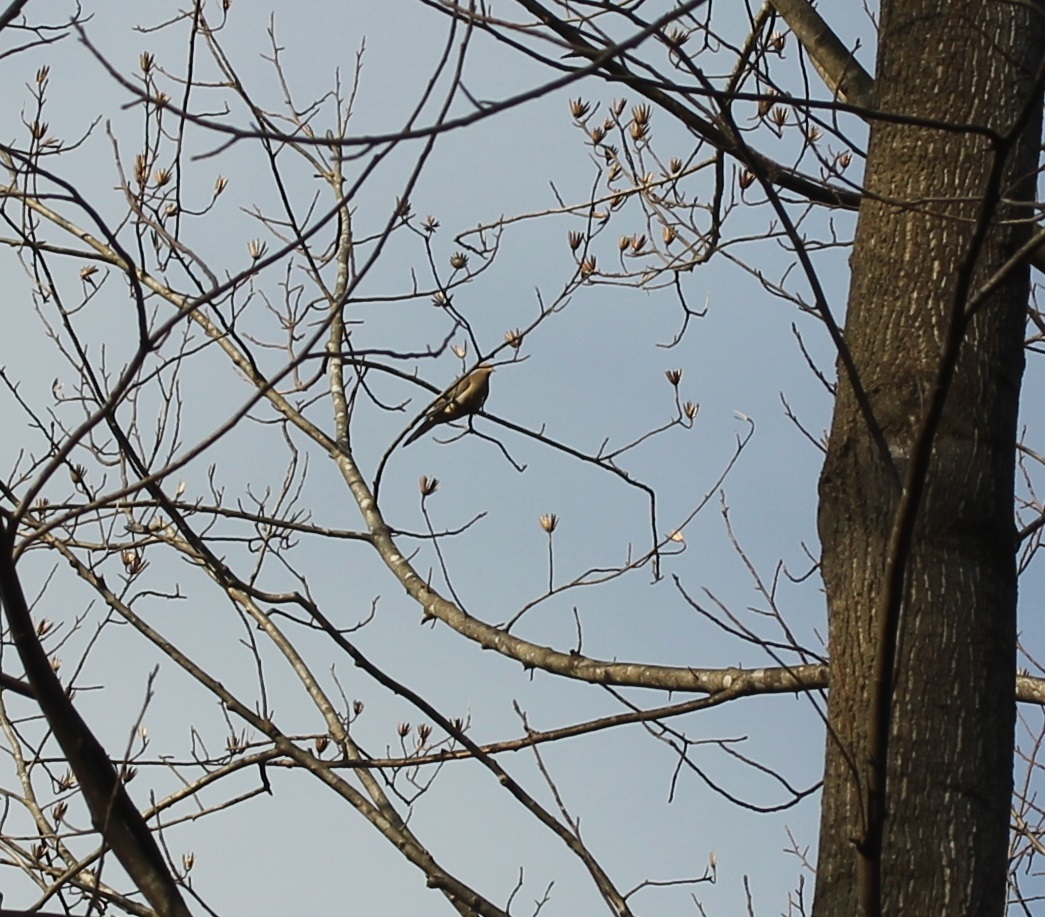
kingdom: Animalia
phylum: Chordata
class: Aves
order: Columbiformes
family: Columbidae
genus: Zenaida
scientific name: Zenaida macroura
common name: Mourning dove
